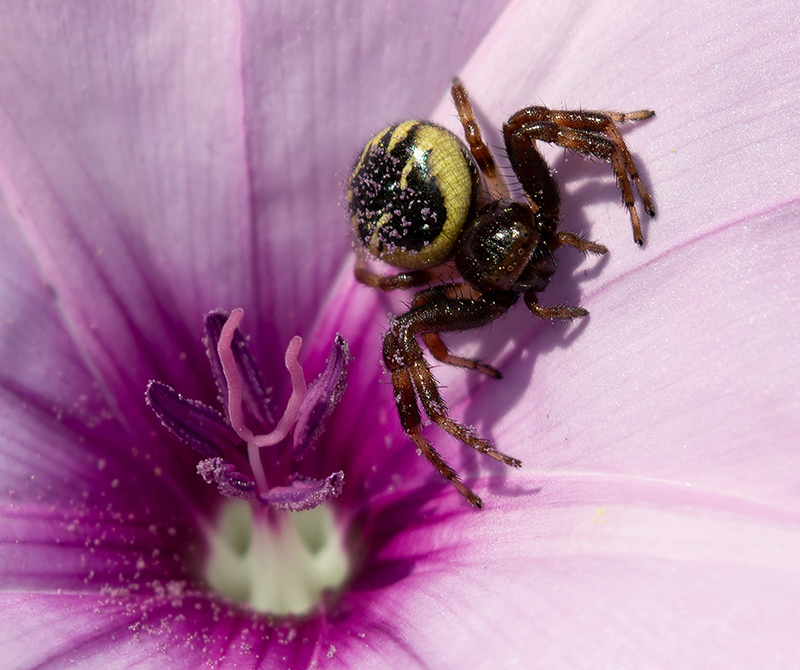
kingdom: Animalia
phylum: Arthropoda
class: Arachnida
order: Araneae
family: Thomisidae
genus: Synema
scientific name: Synema globosum
